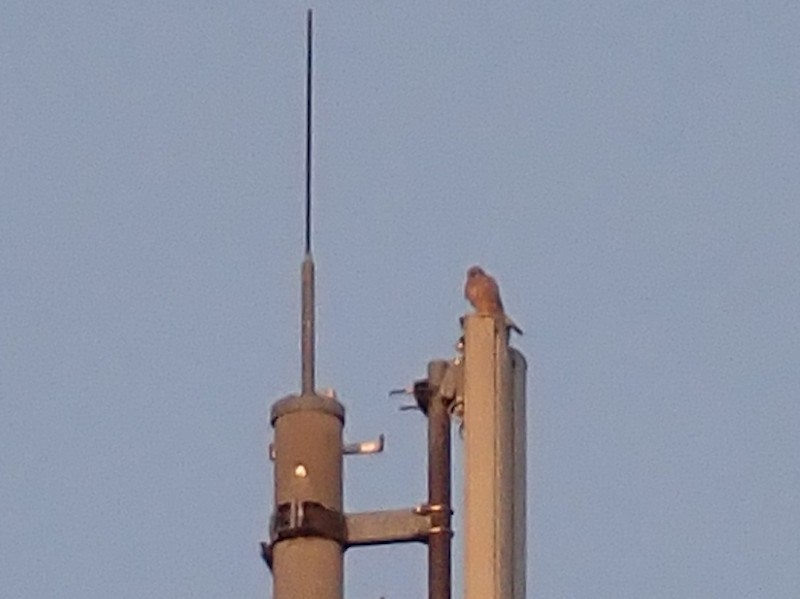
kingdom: Animalia
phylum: Chordata
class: Aves
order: Falconiformes
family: Falconidae
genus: Falco
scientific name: Falco tinnunculus
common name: Common kestrel
